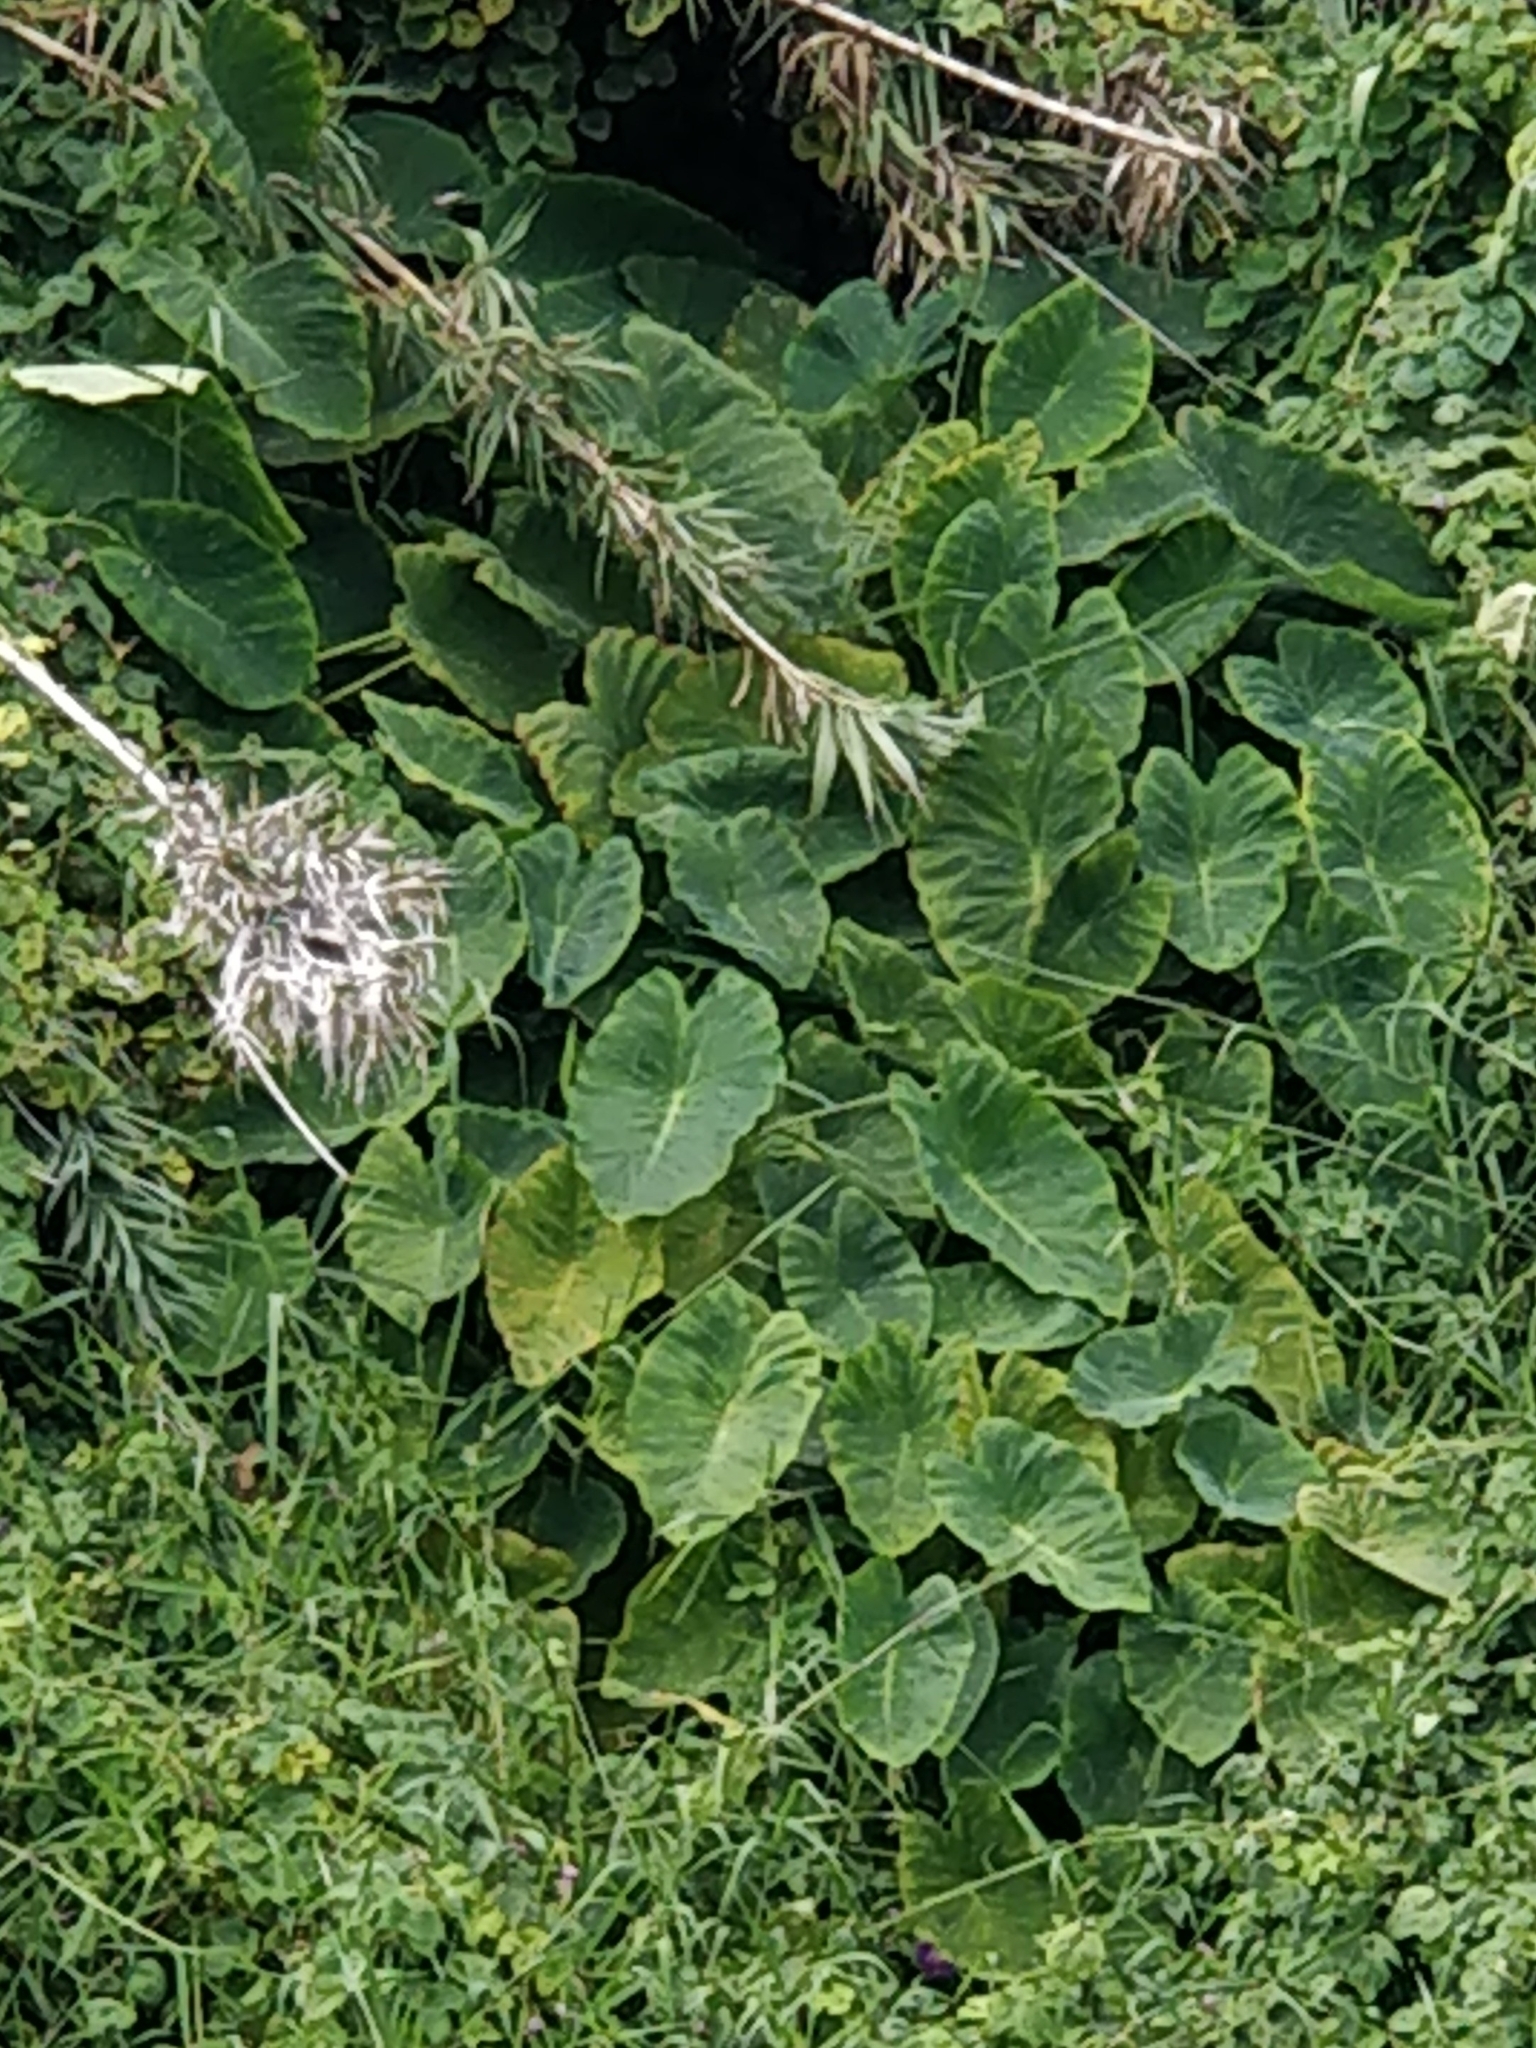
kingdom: Plantae
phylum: Tracheophyta
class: Liliopsida
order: Alismatales
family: Araceae
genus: Colocasia
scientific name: Colocasia esculenta
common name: Taro
